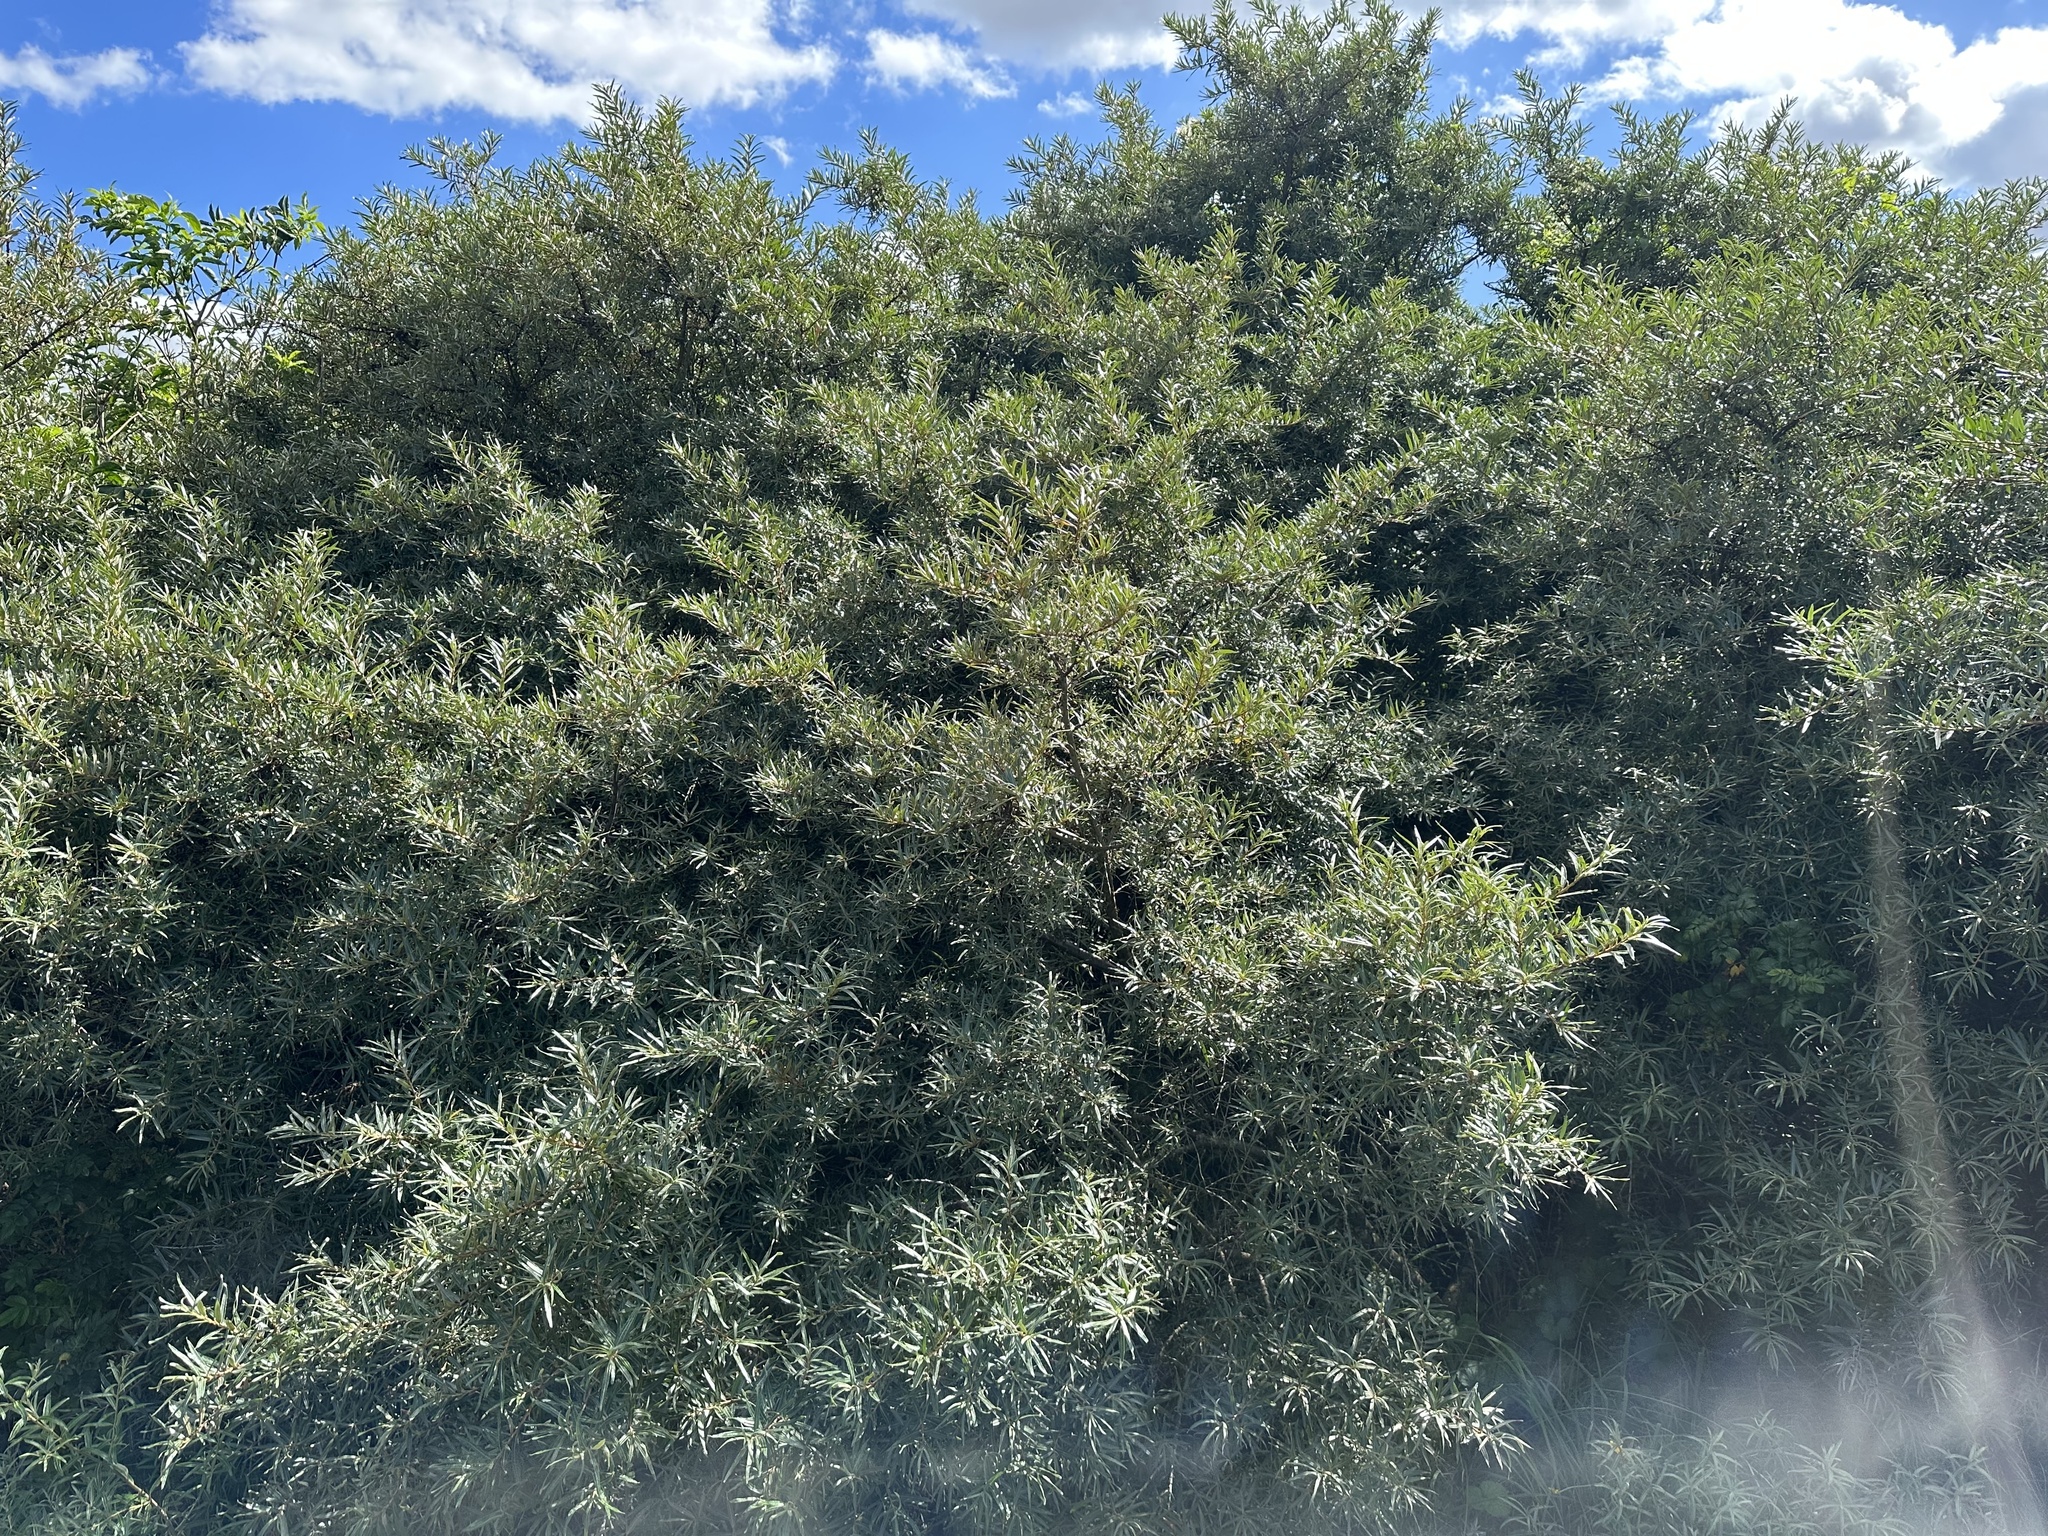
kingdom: Plantae
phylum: Tracheophyta
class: Magnoliopsida
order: Rosales
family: Elaeagnaceae
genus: Hippophae
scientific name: Hippophae rhamnoides
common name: Sea-buckthorn
